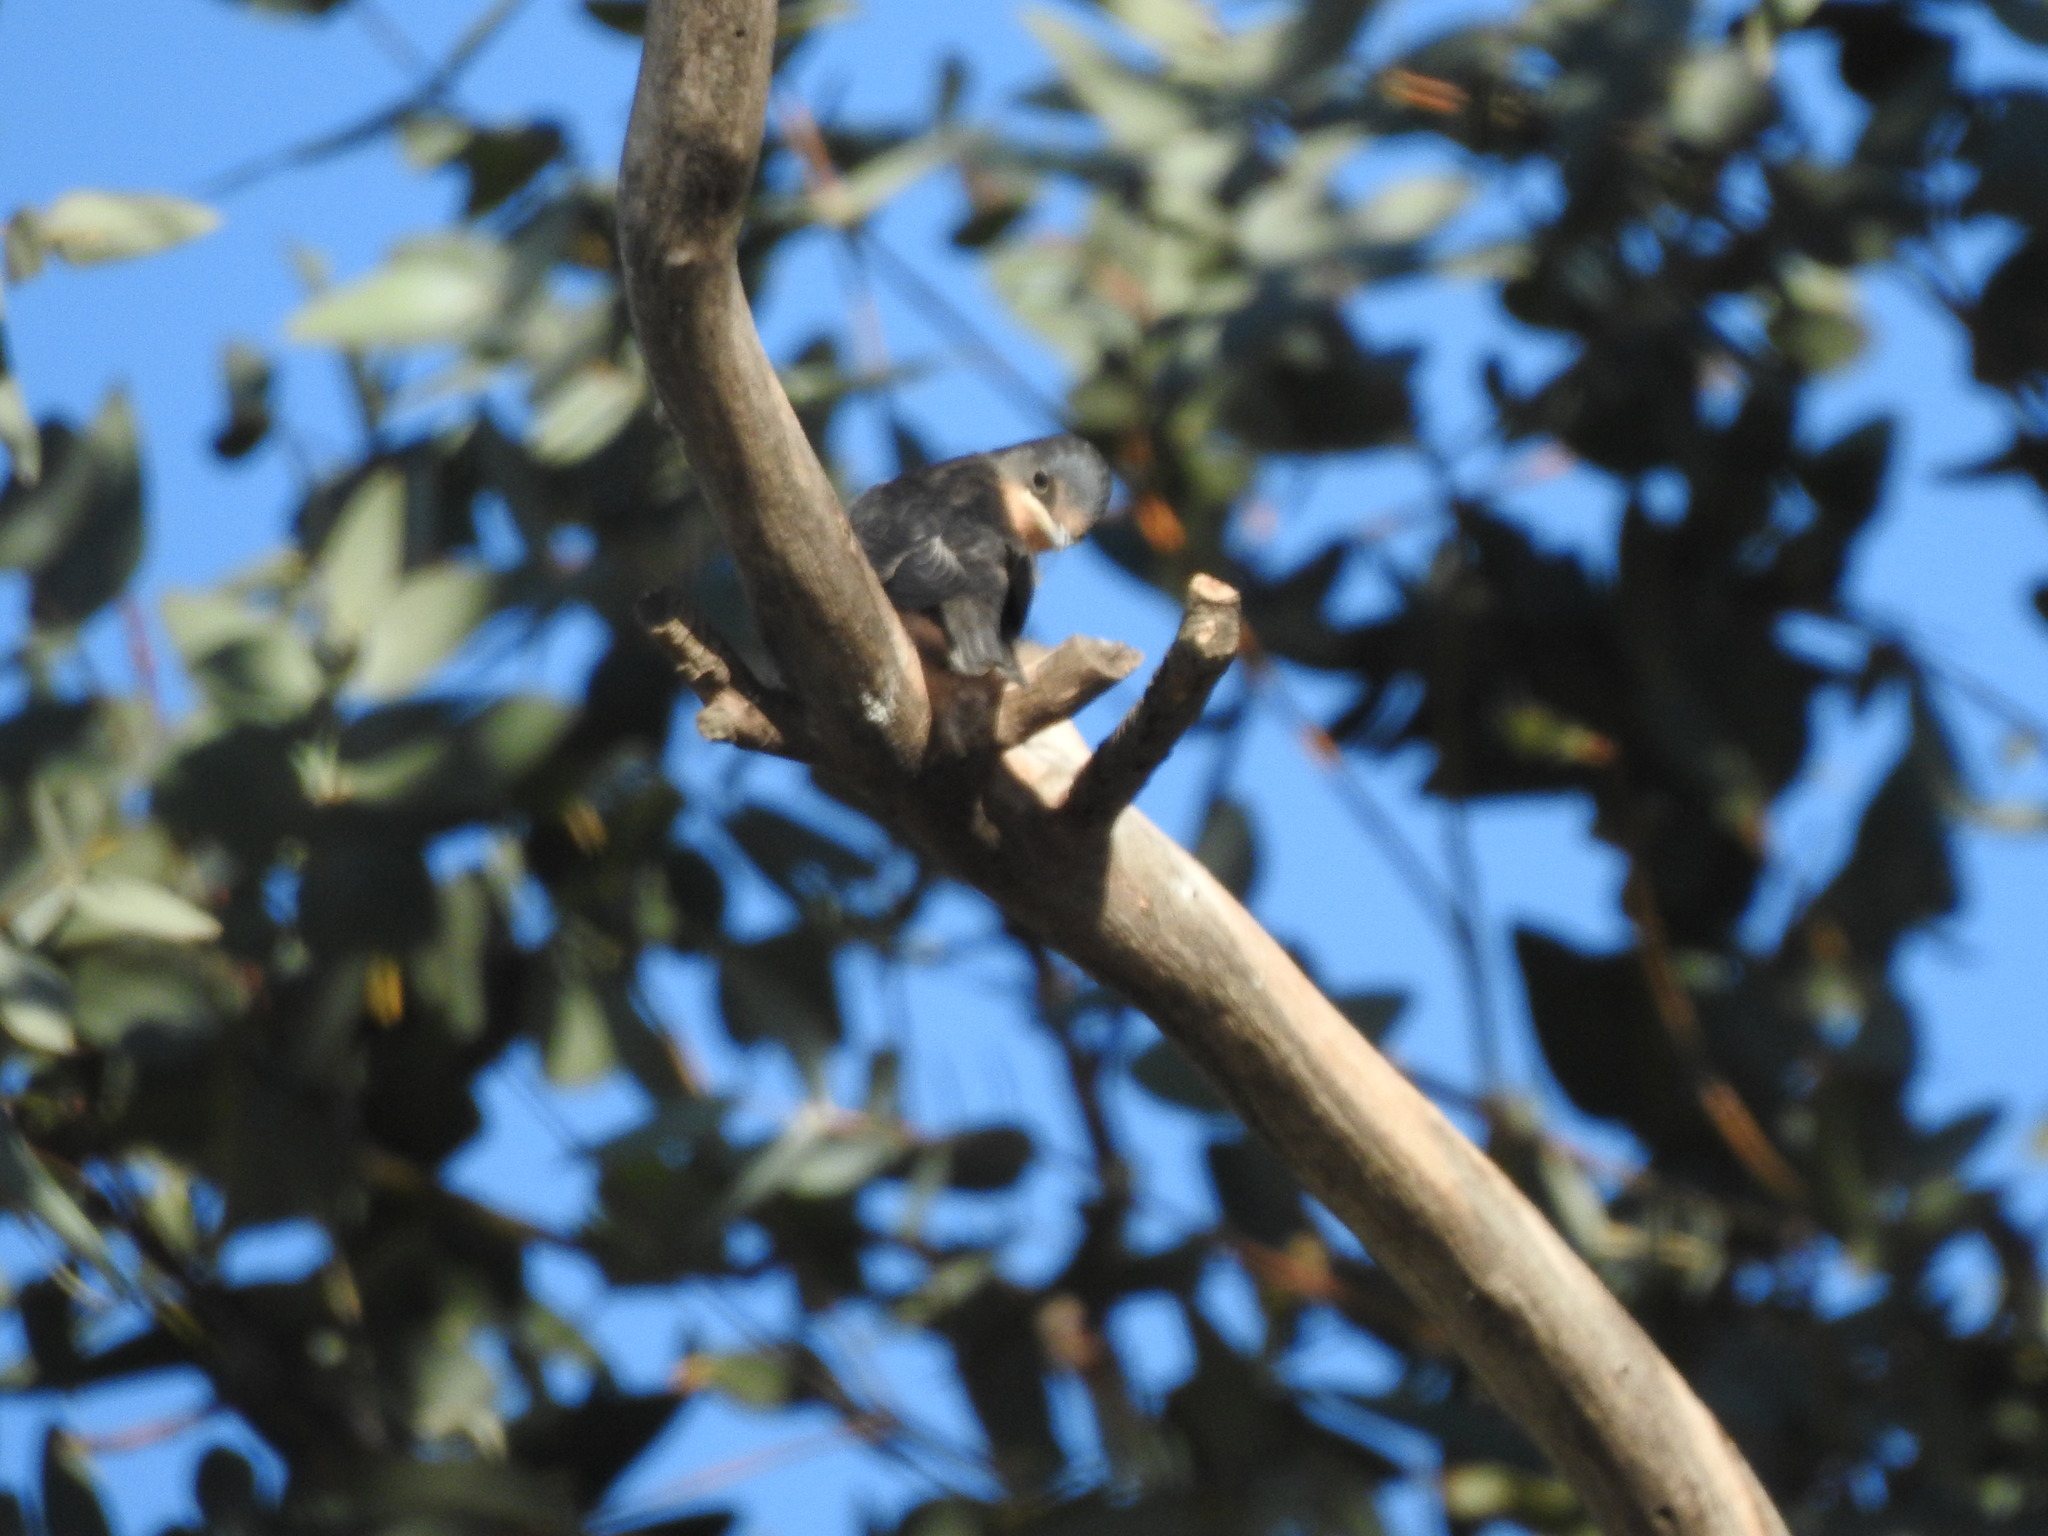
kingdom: Animalia
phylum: Chordata
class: Aves
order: Passeriformes
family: Hirundinidae
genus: Hirundo
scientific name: Hirundo rustica
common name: Barn swallow
